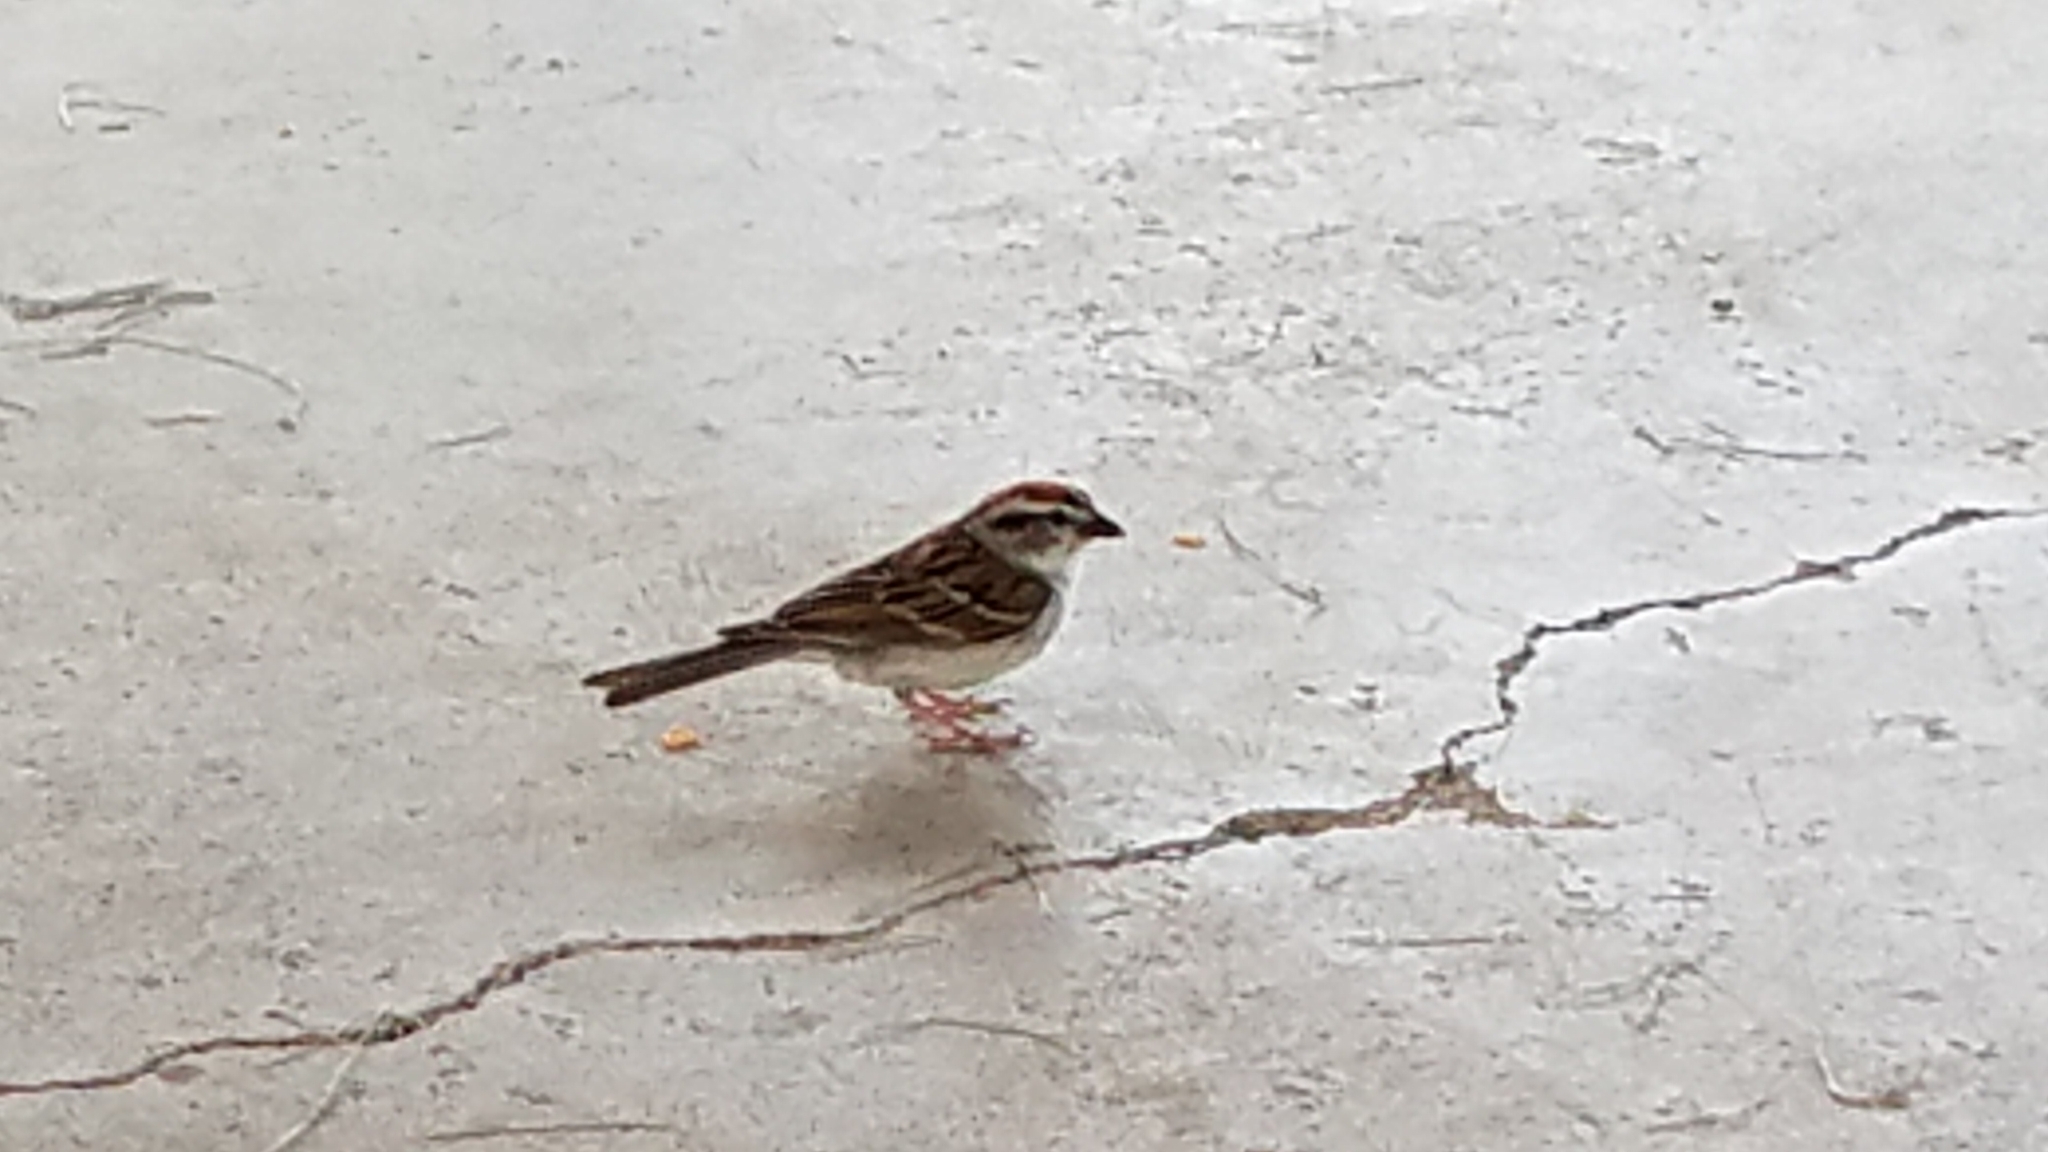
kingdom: Animalia
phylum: Chordata
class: Aves
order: Passeriformes
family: Passerellidae
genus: Spizella
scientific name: Spizella passerina
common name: Chipping sparrow
